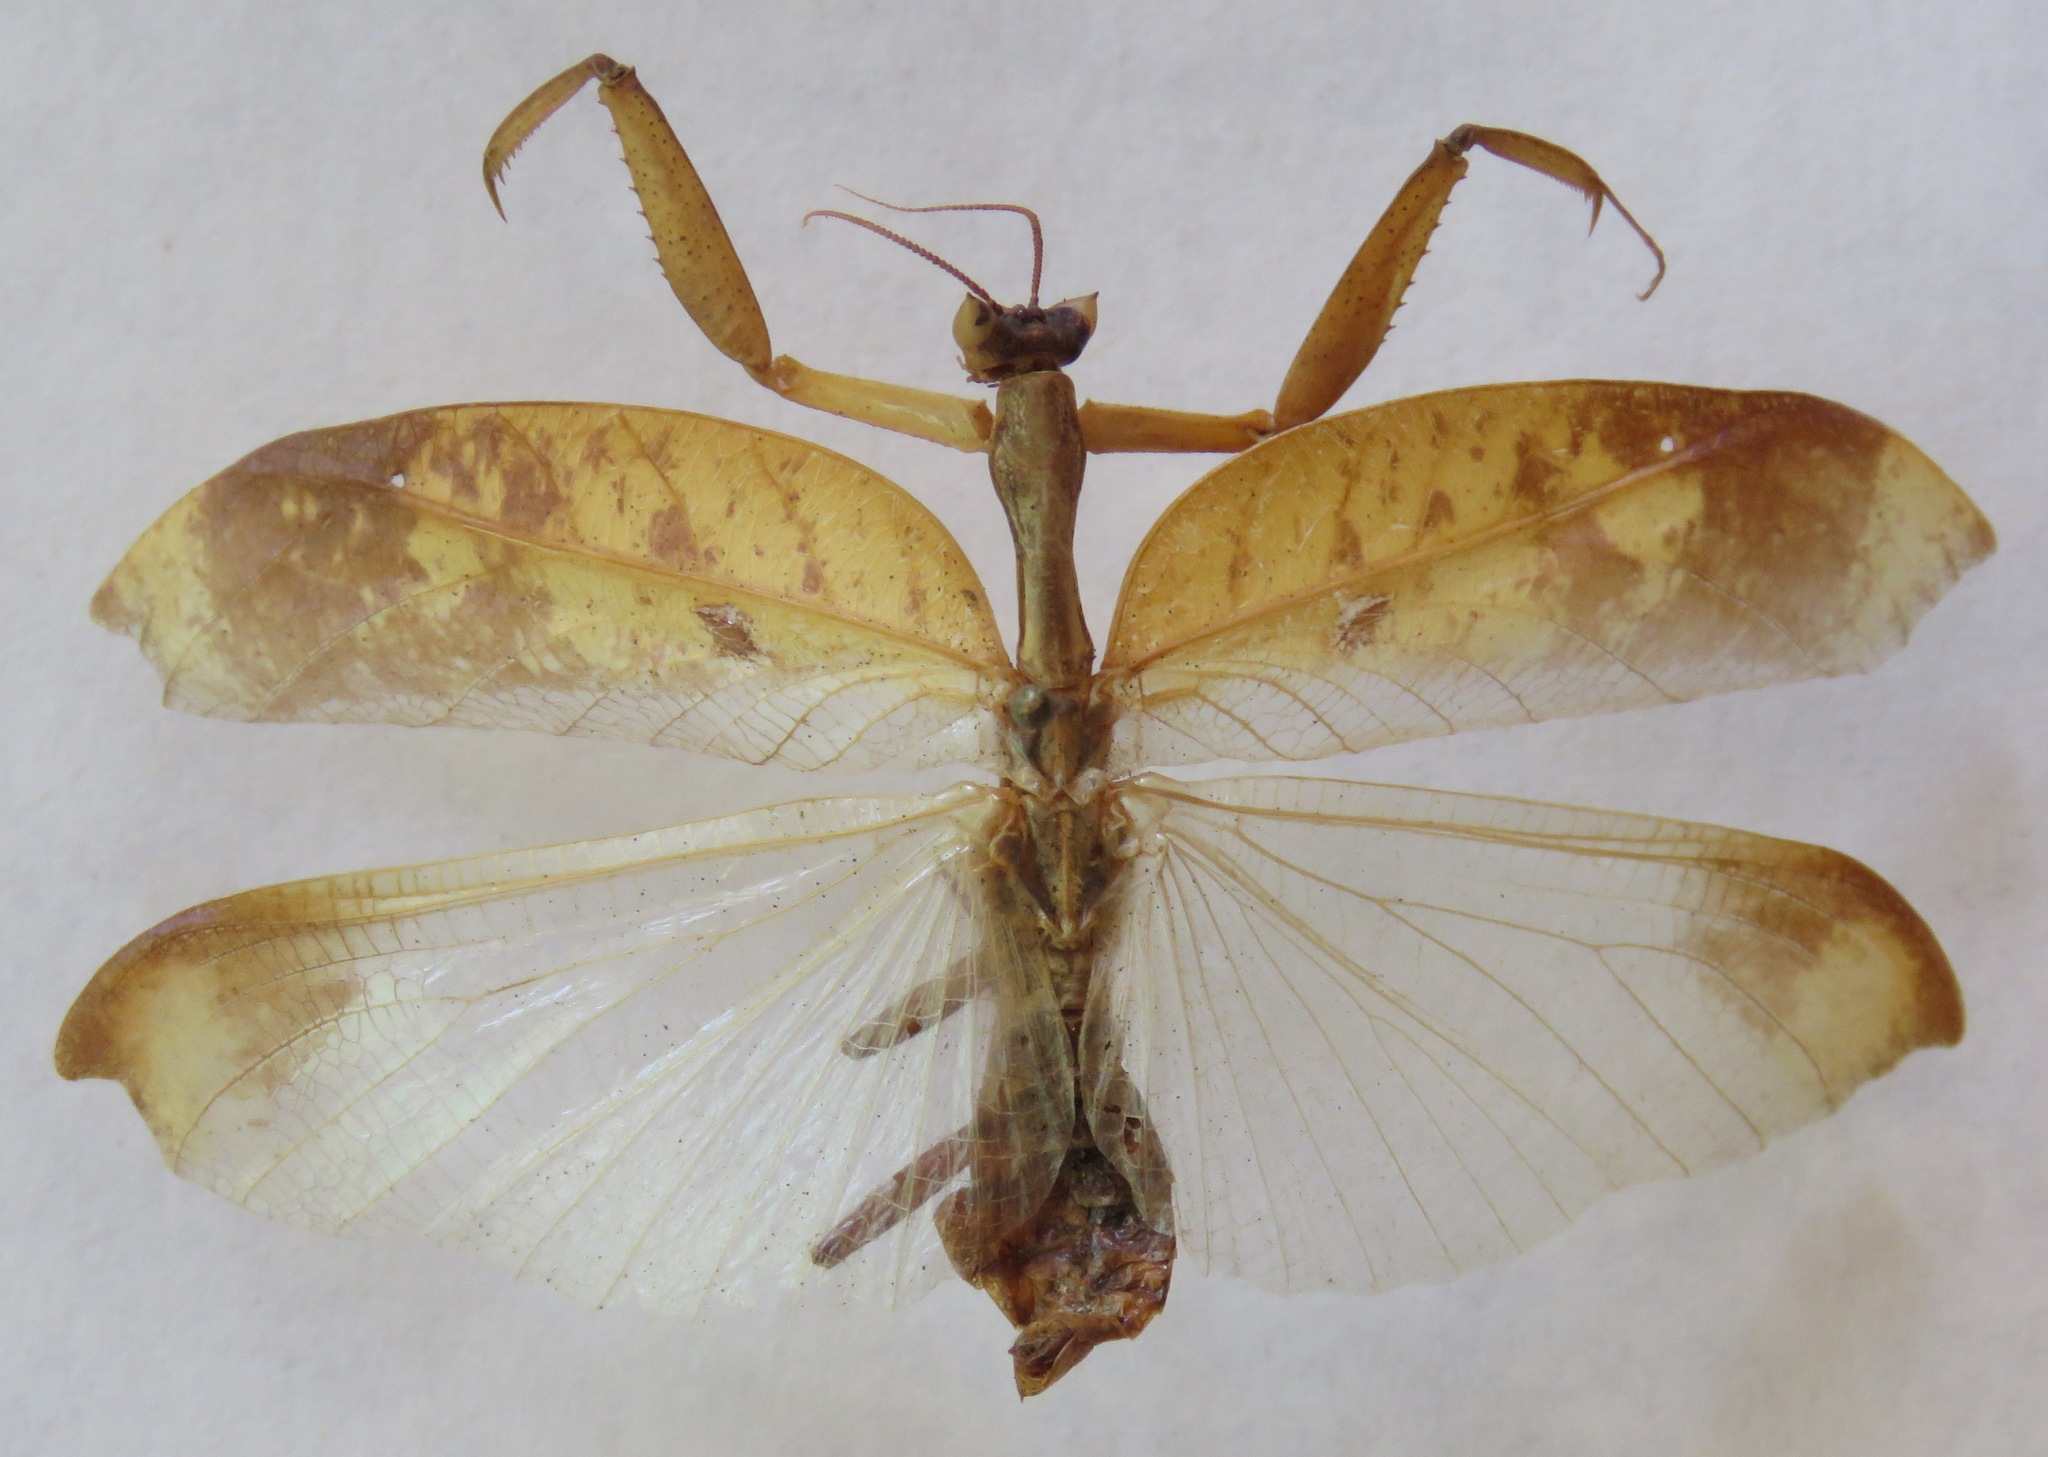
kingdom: Animalia
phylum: Arthropoda
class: Insecta
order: Mantodea
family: Acanthopidae
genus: Metilia
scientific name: Metilia brunnerii
